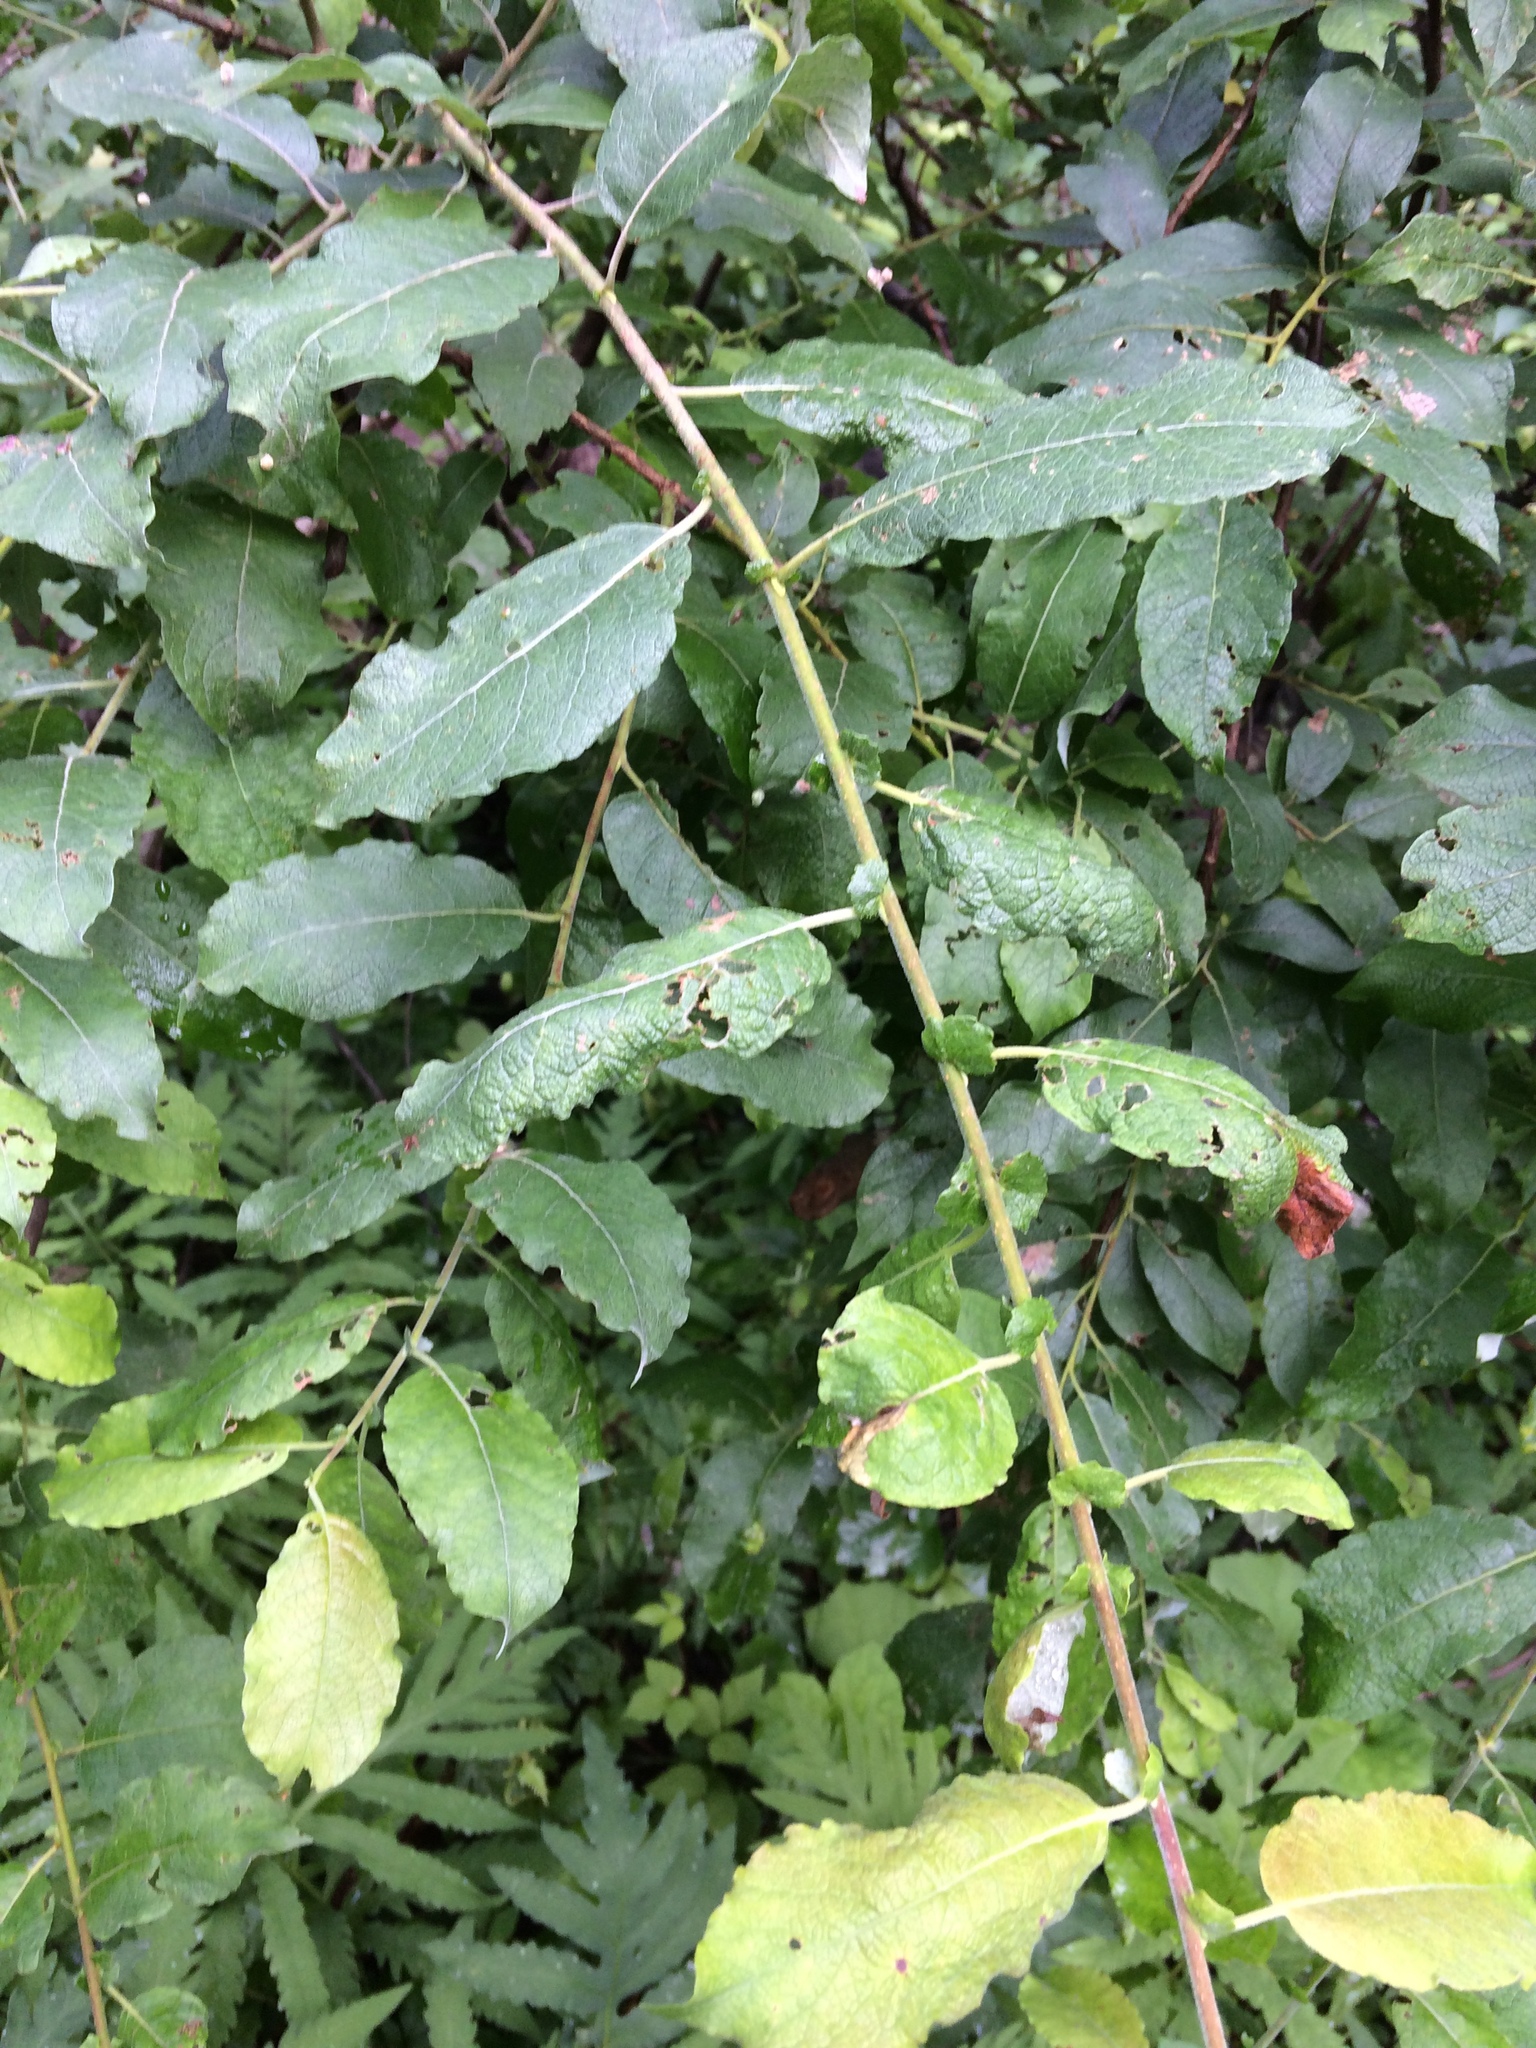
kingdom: Plantae
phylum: Tracheophyta
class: Magnoliopsida
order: Malpighiales
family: Salicaceae
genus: Salix
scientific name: Salix bebbiana
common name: Bebb's willow
